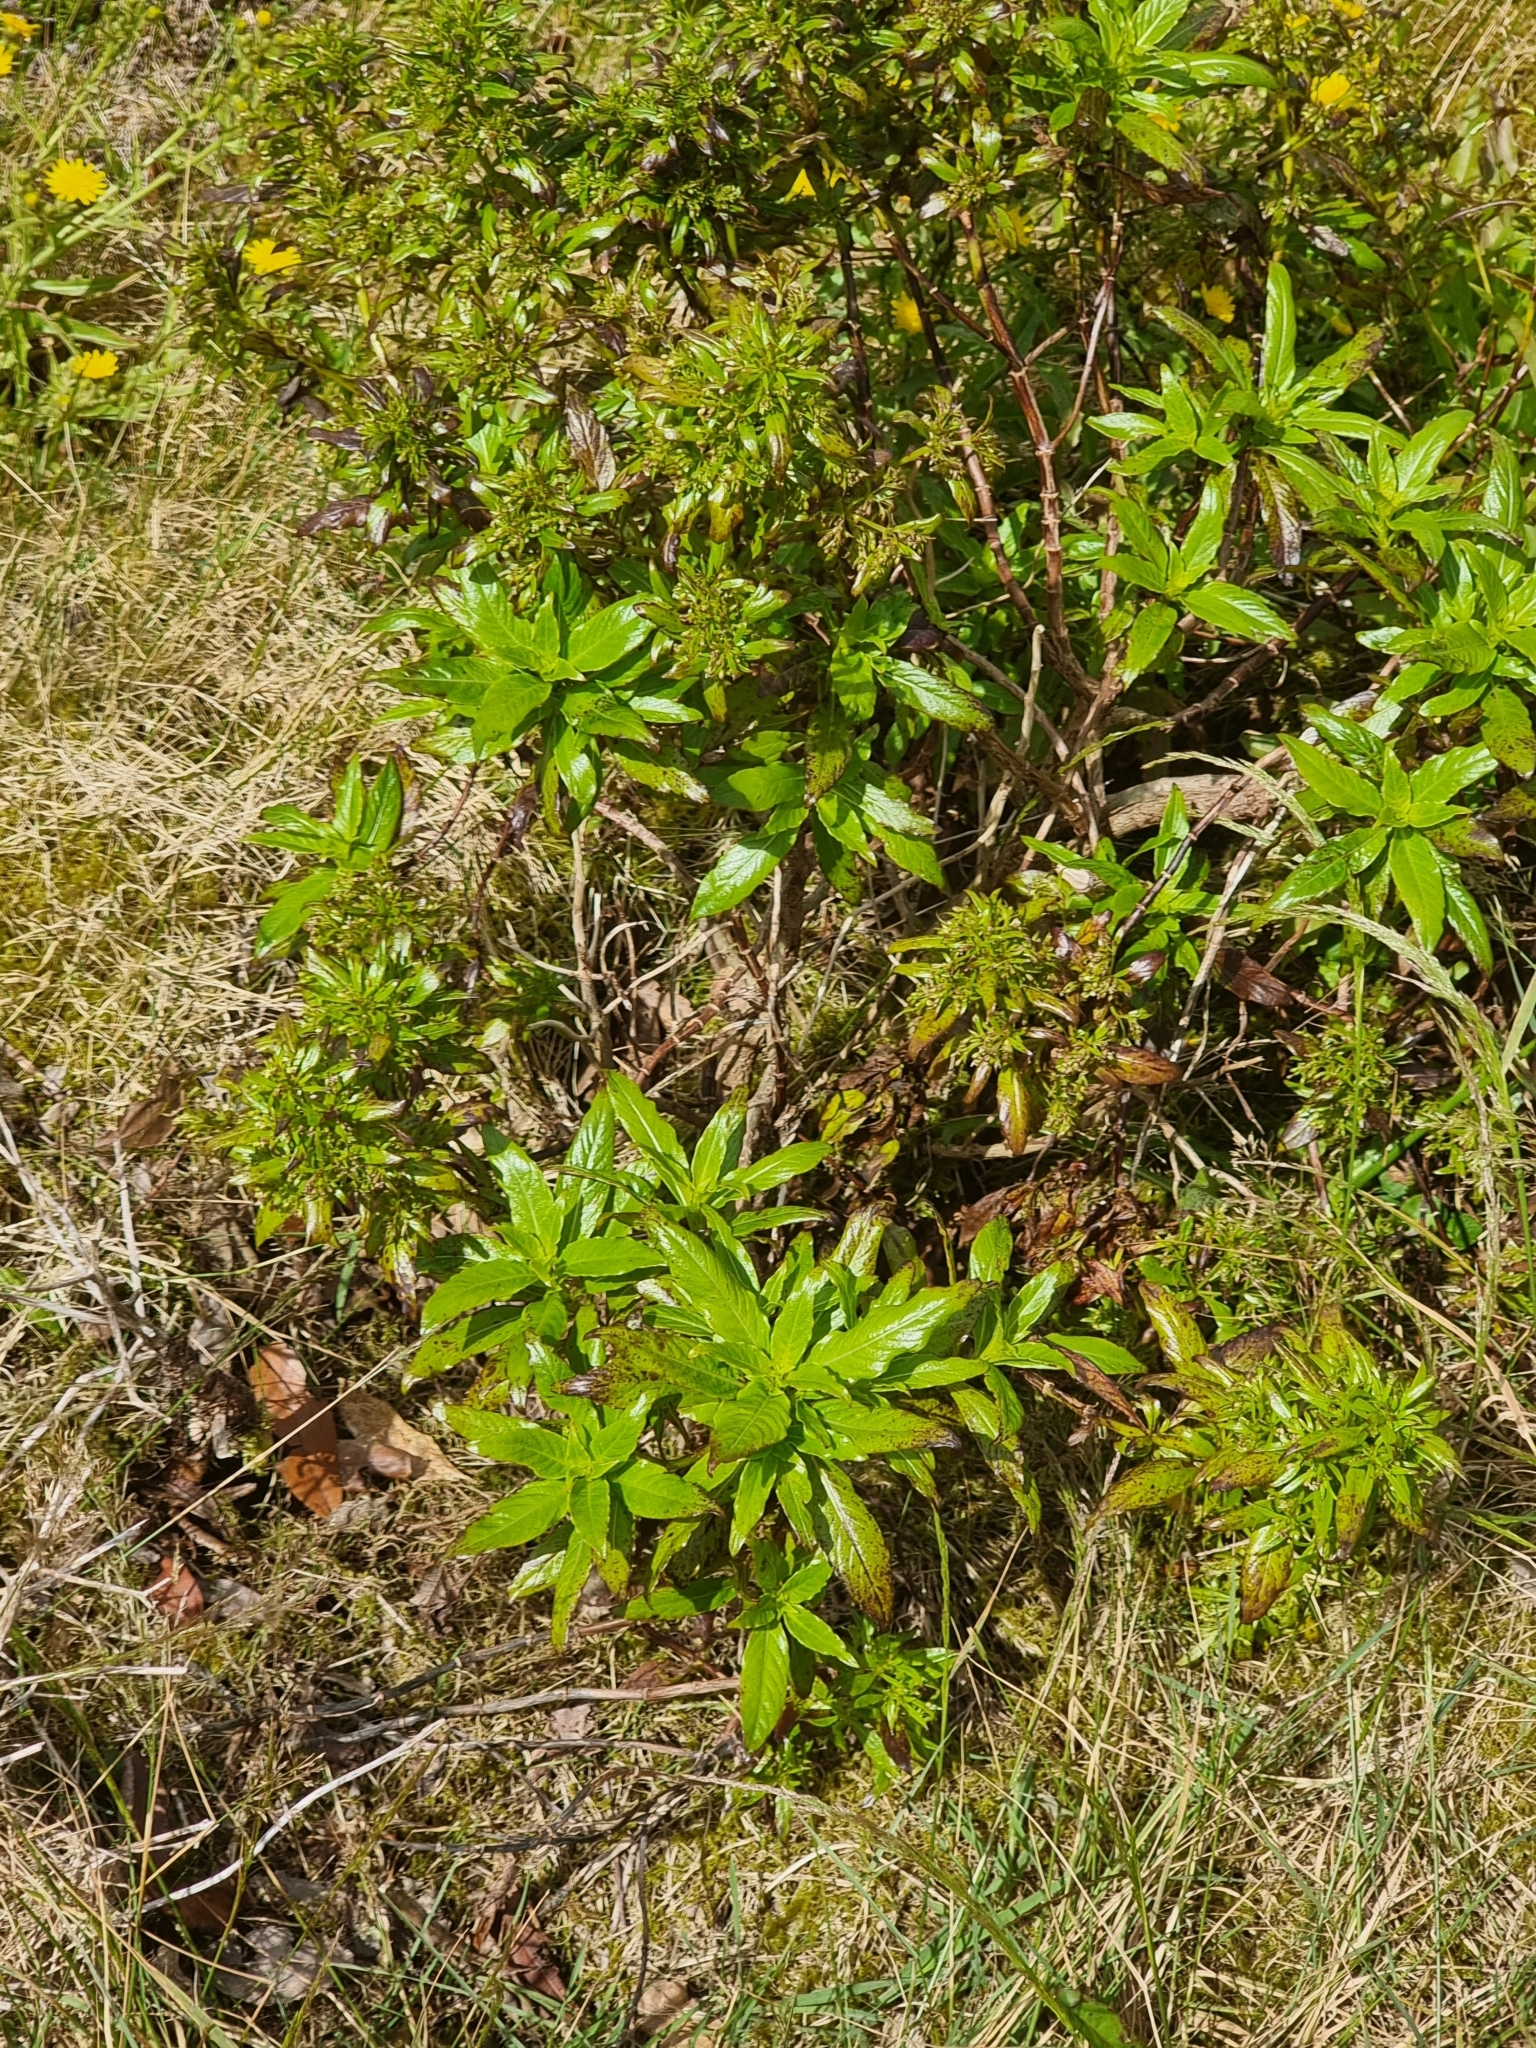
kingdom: Plantae
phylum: Tracheophyta
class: Magnoliopsida
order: Gentianales
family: Rubiaceae
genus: Phyllis
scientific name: Phyllis nobla
